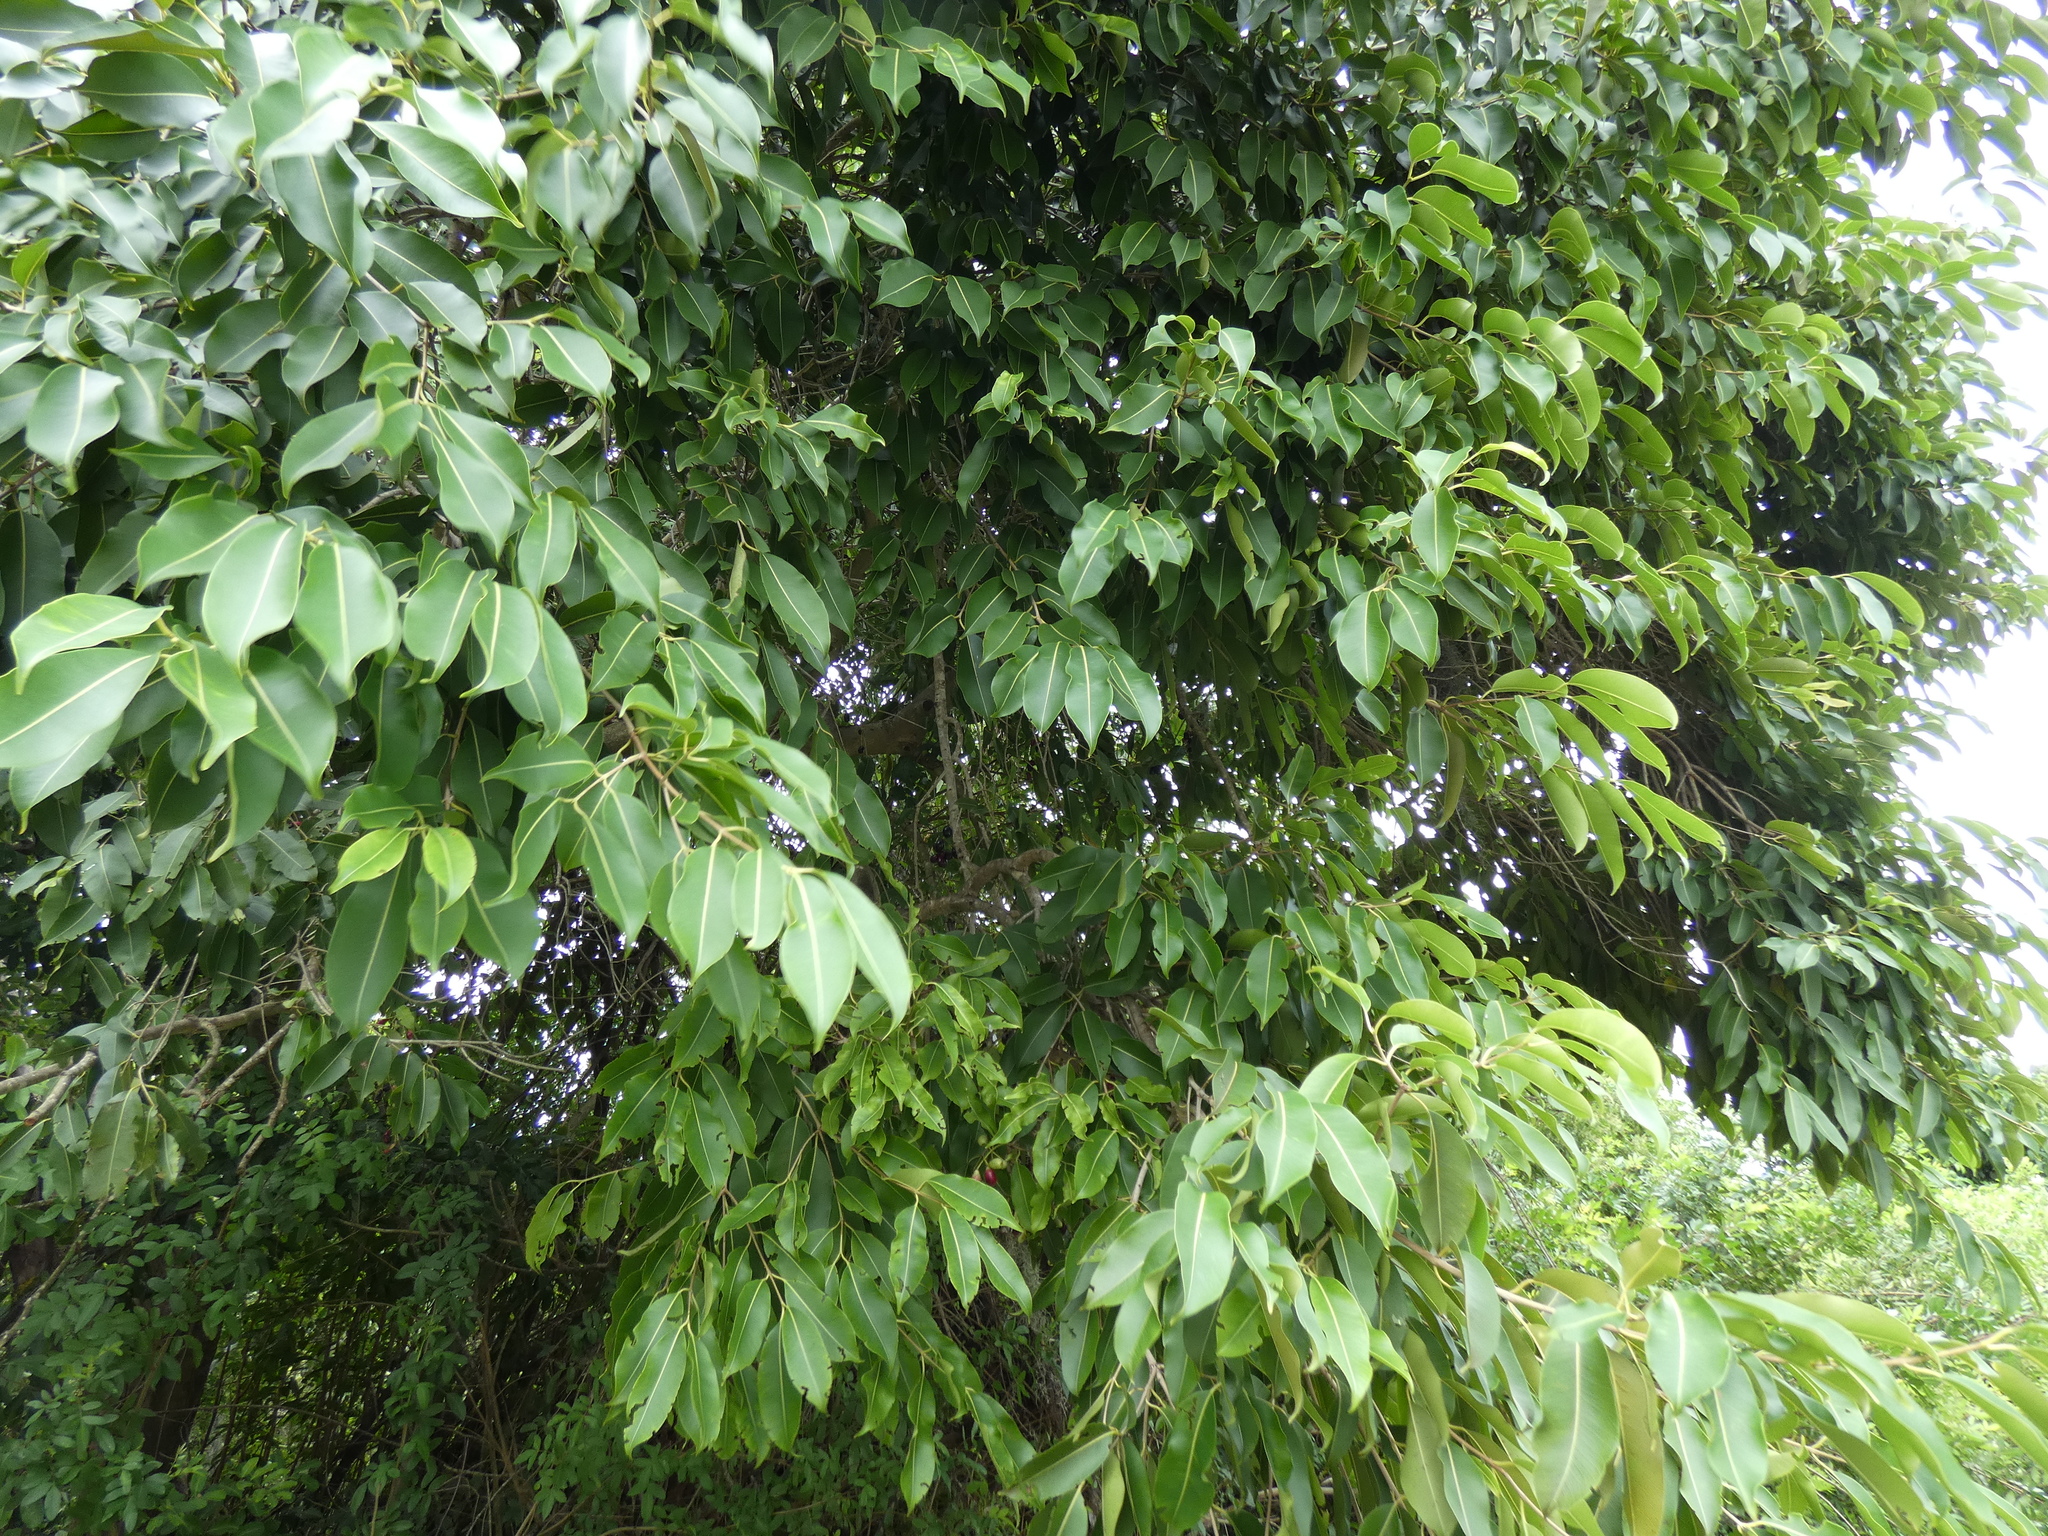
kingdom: Plantae
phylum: Tracheophyta
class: Magnoliopsida
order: Myrtales
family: Myrtaceae
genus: Syzygium
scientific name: Syzygium cumini
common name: Java plum
